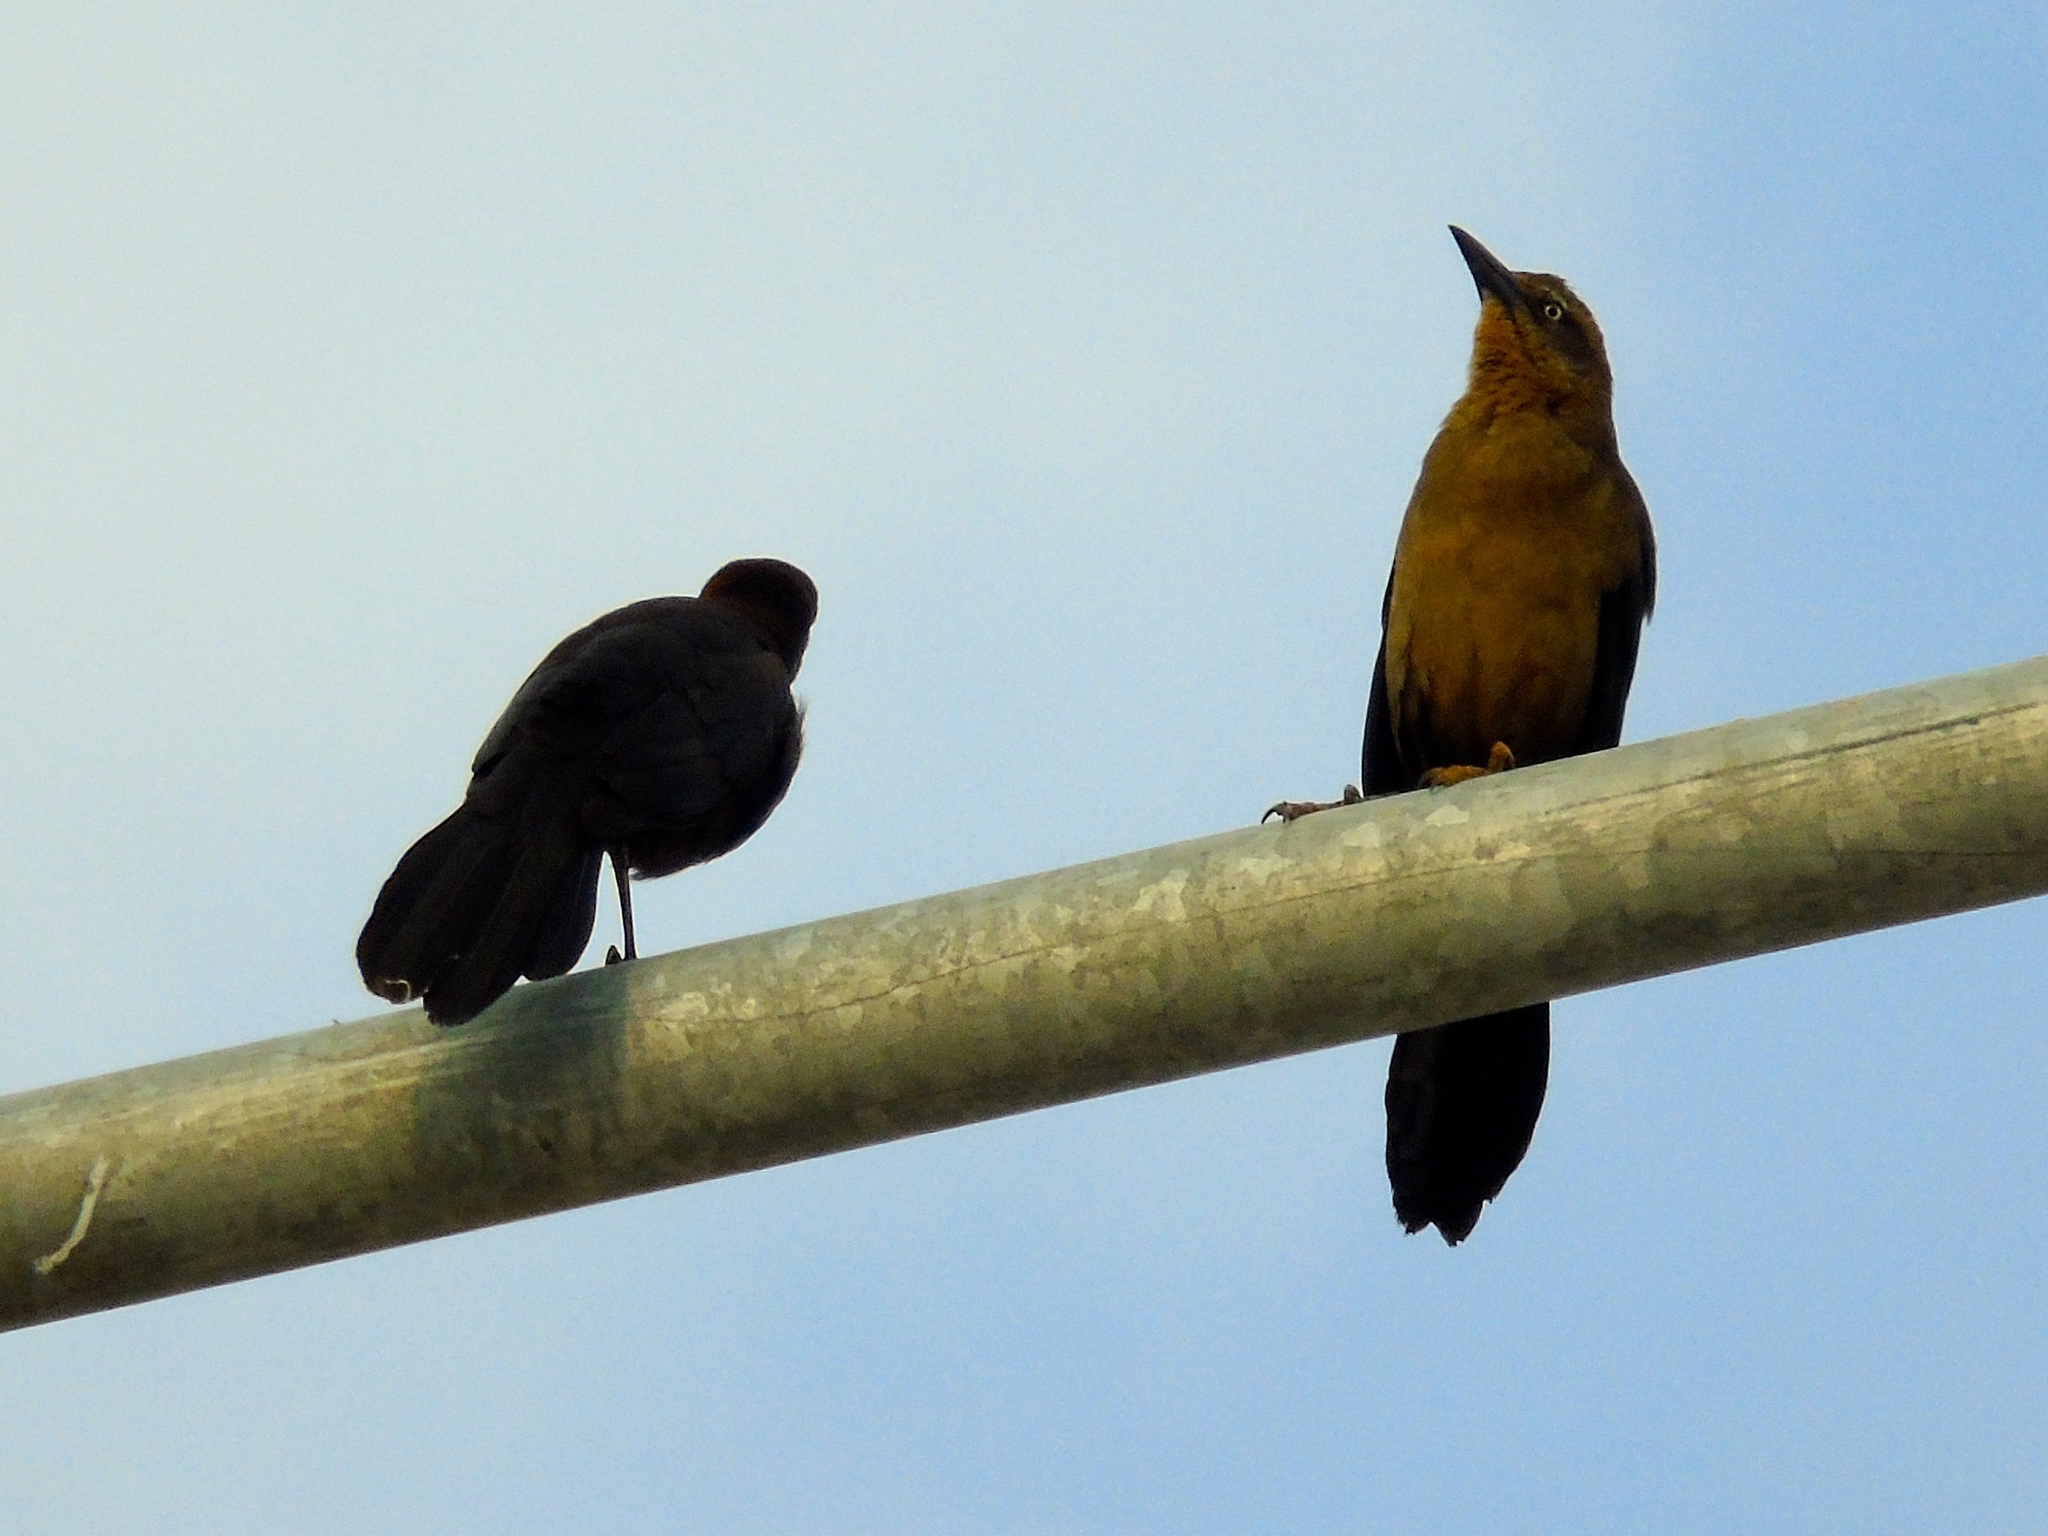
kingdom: Animalia
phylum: Chordata
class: Aves
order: Passeriformes
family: Icteridae
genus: Quiscalus
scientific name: Quiscalus mexicanus
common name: Great-tailed grackle
